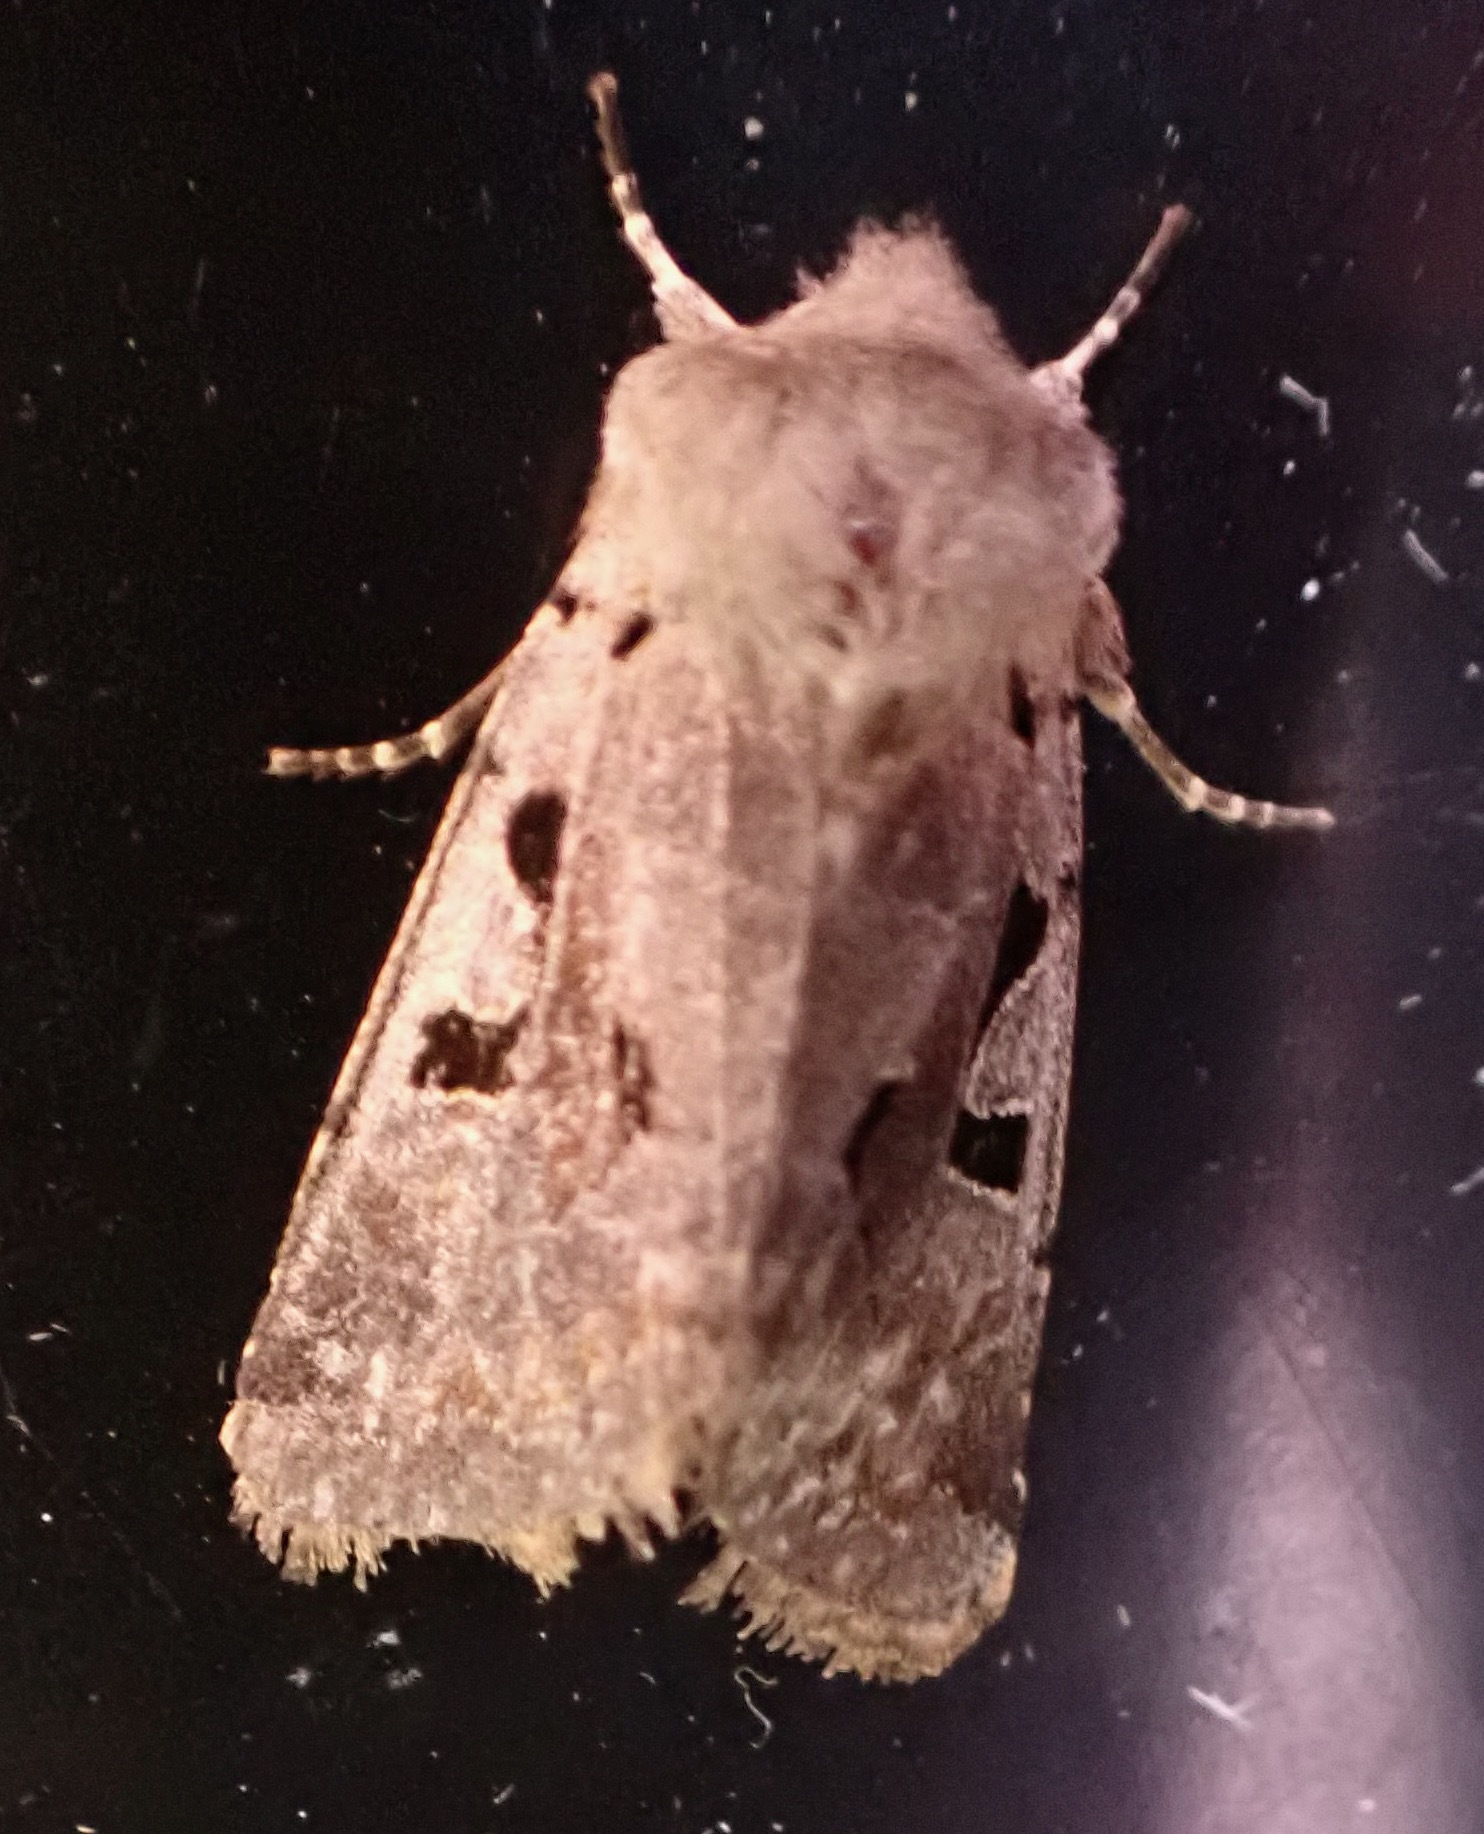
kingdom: Animalia
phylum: Arthropoda
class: Insecta
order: Lepidoptera
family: Noctuidae
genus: Orthosia
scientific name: Orthosia gothica
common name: Hebrew character
